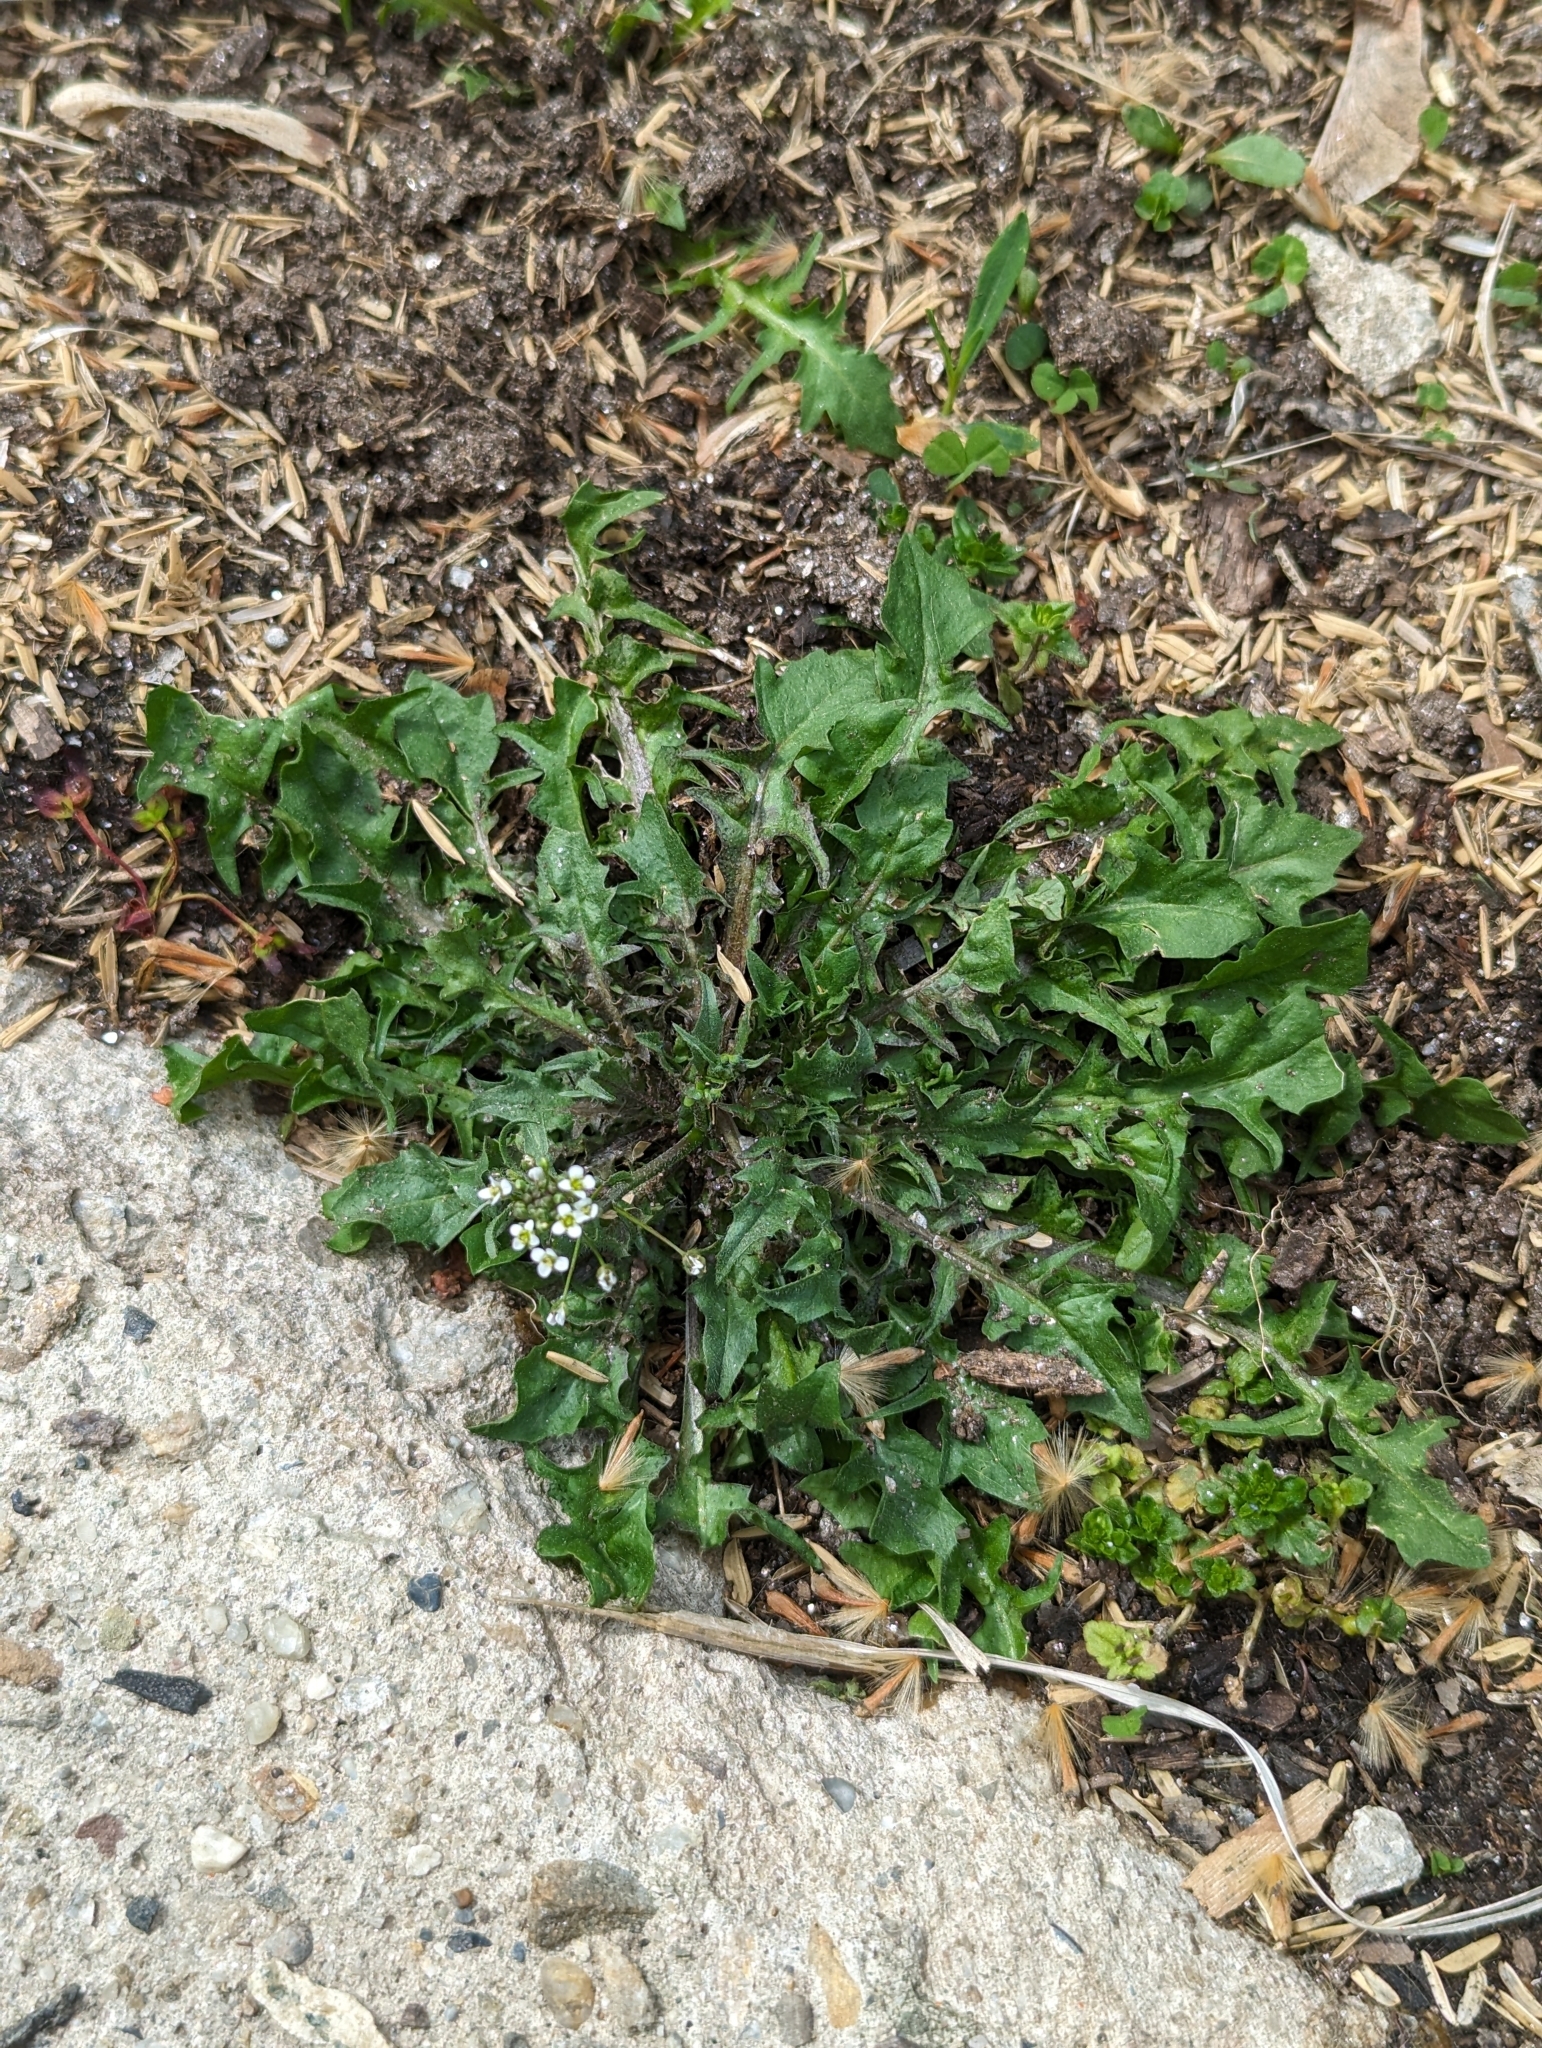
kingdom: Plantae
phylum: Tracheophyta
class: Magnoliopsida
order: Brassicales
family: Brassicaceae
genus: Capsella
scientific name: Capsella bursa-pastoris
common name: Shepherd's purse
